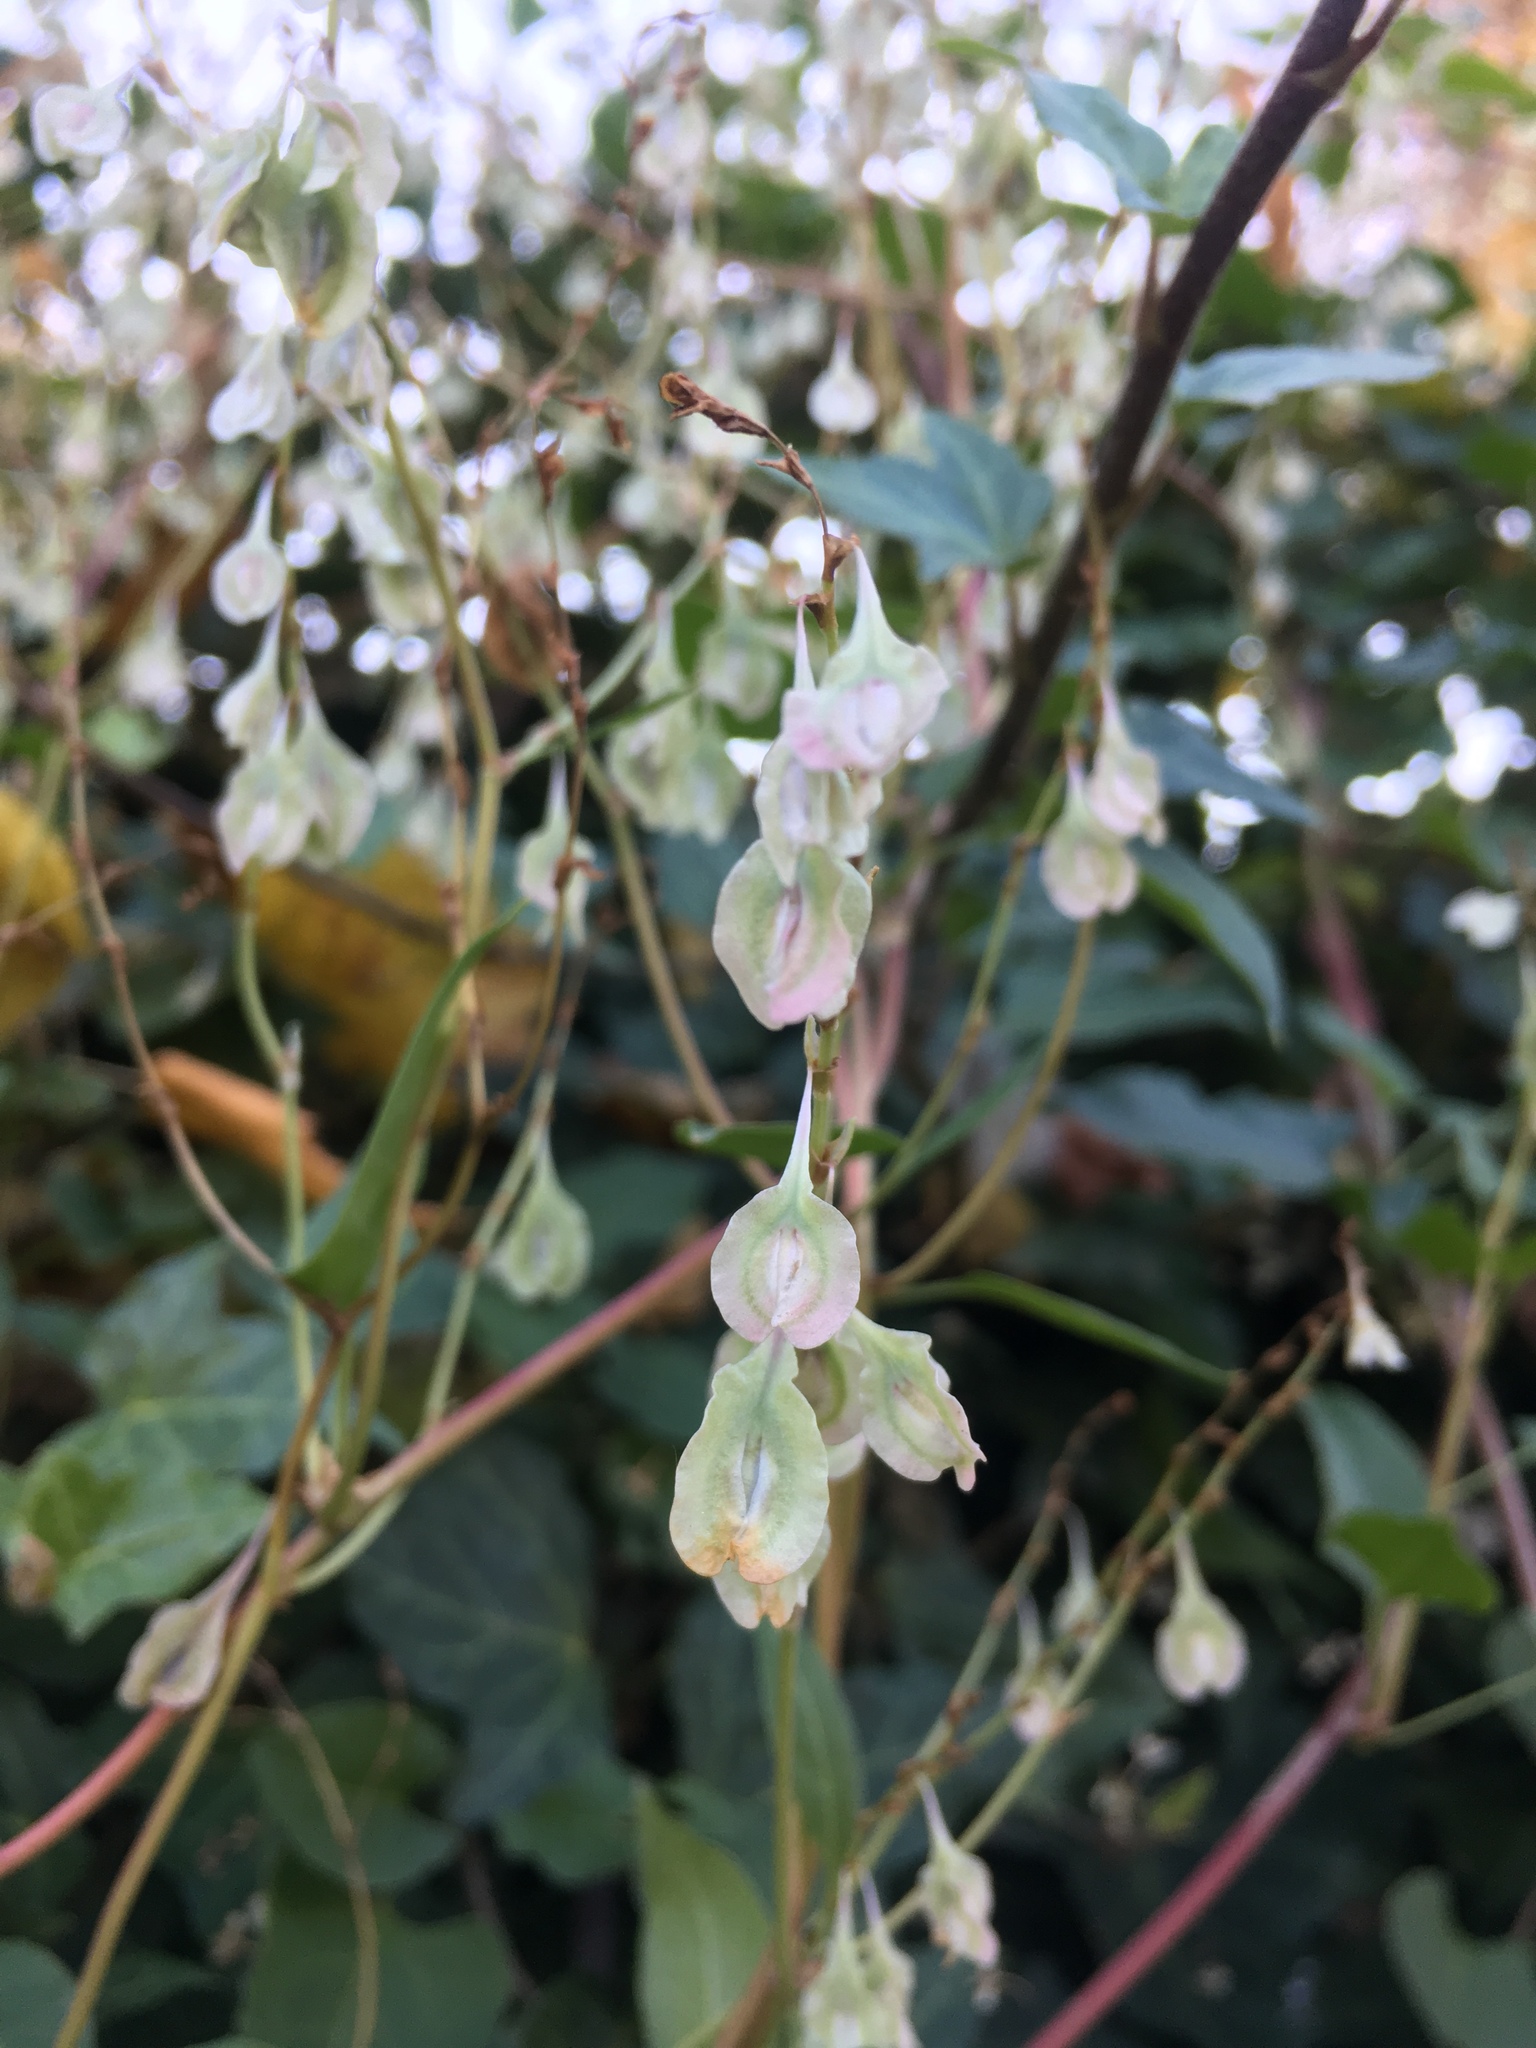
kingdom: Plantae
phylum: Tracheophyta
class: Magnoliopsida
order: Caryophyllales
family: Polygonaceae
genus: Fallopia
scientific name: Fallopia baldschuanica
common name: Russian-vine
